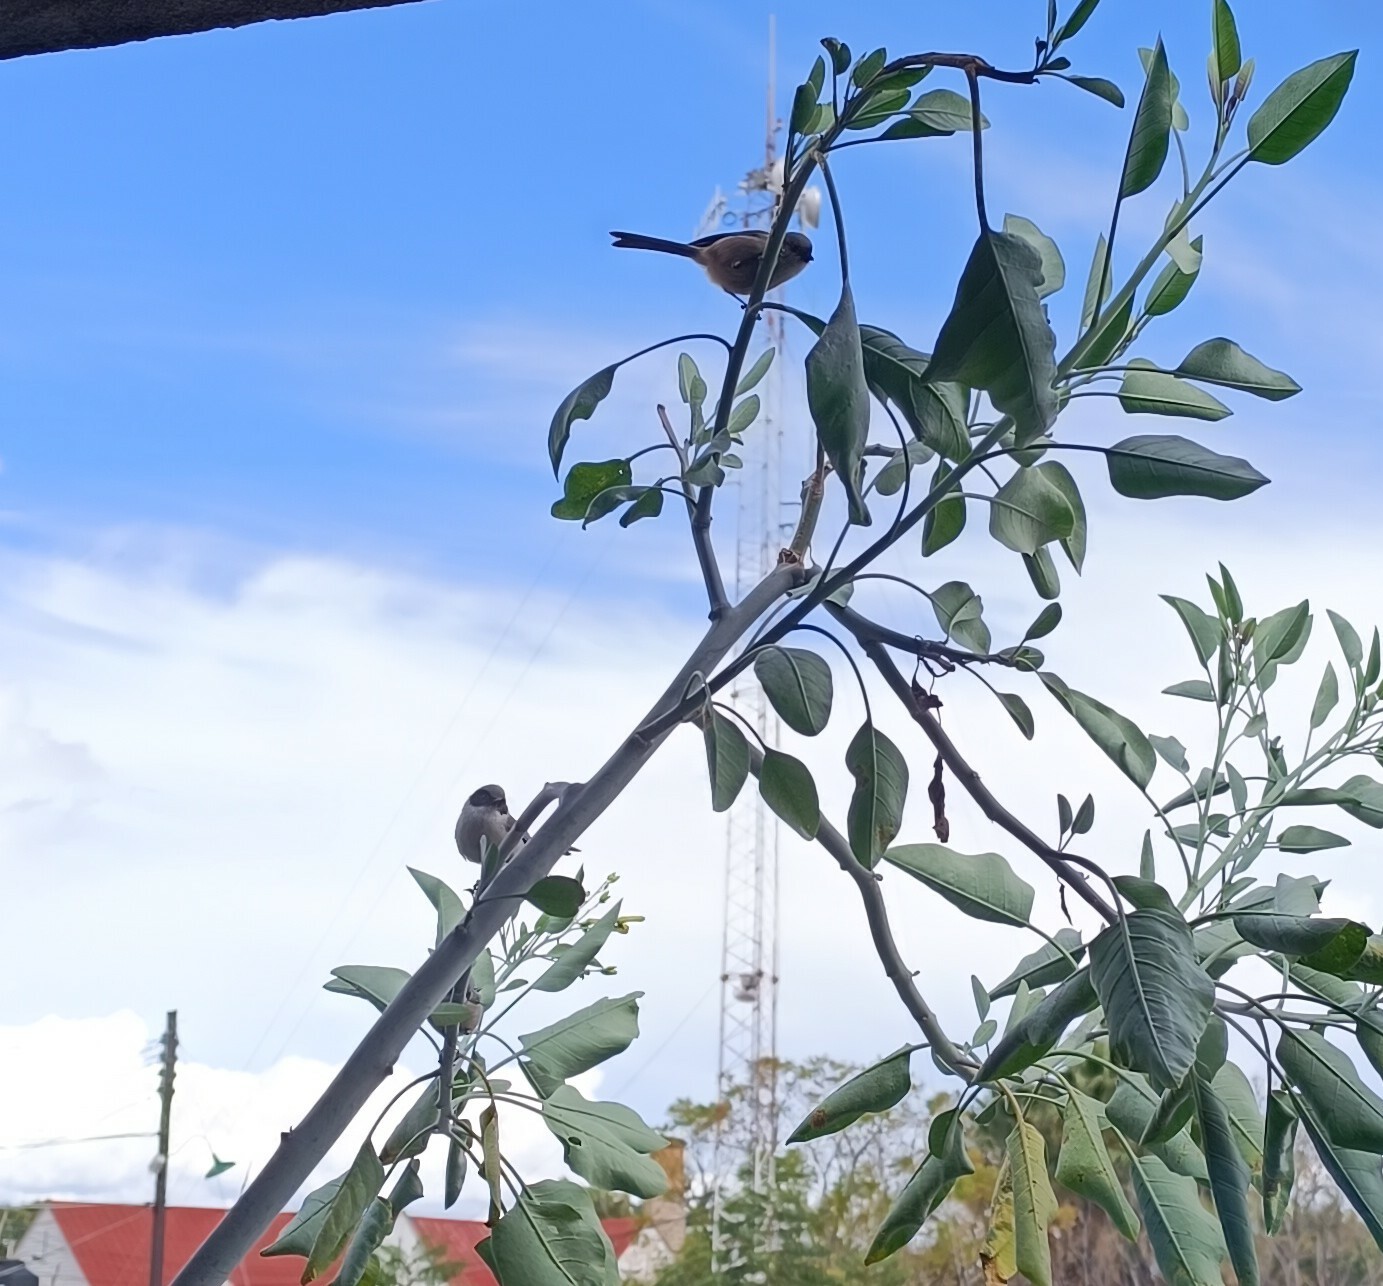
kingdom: Animalia
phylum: Chordata
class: Aves
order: Passeriformes
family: Aegithalidae
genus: Psaltriparus
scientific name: Psaltriparus minimus
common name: American bushtit
